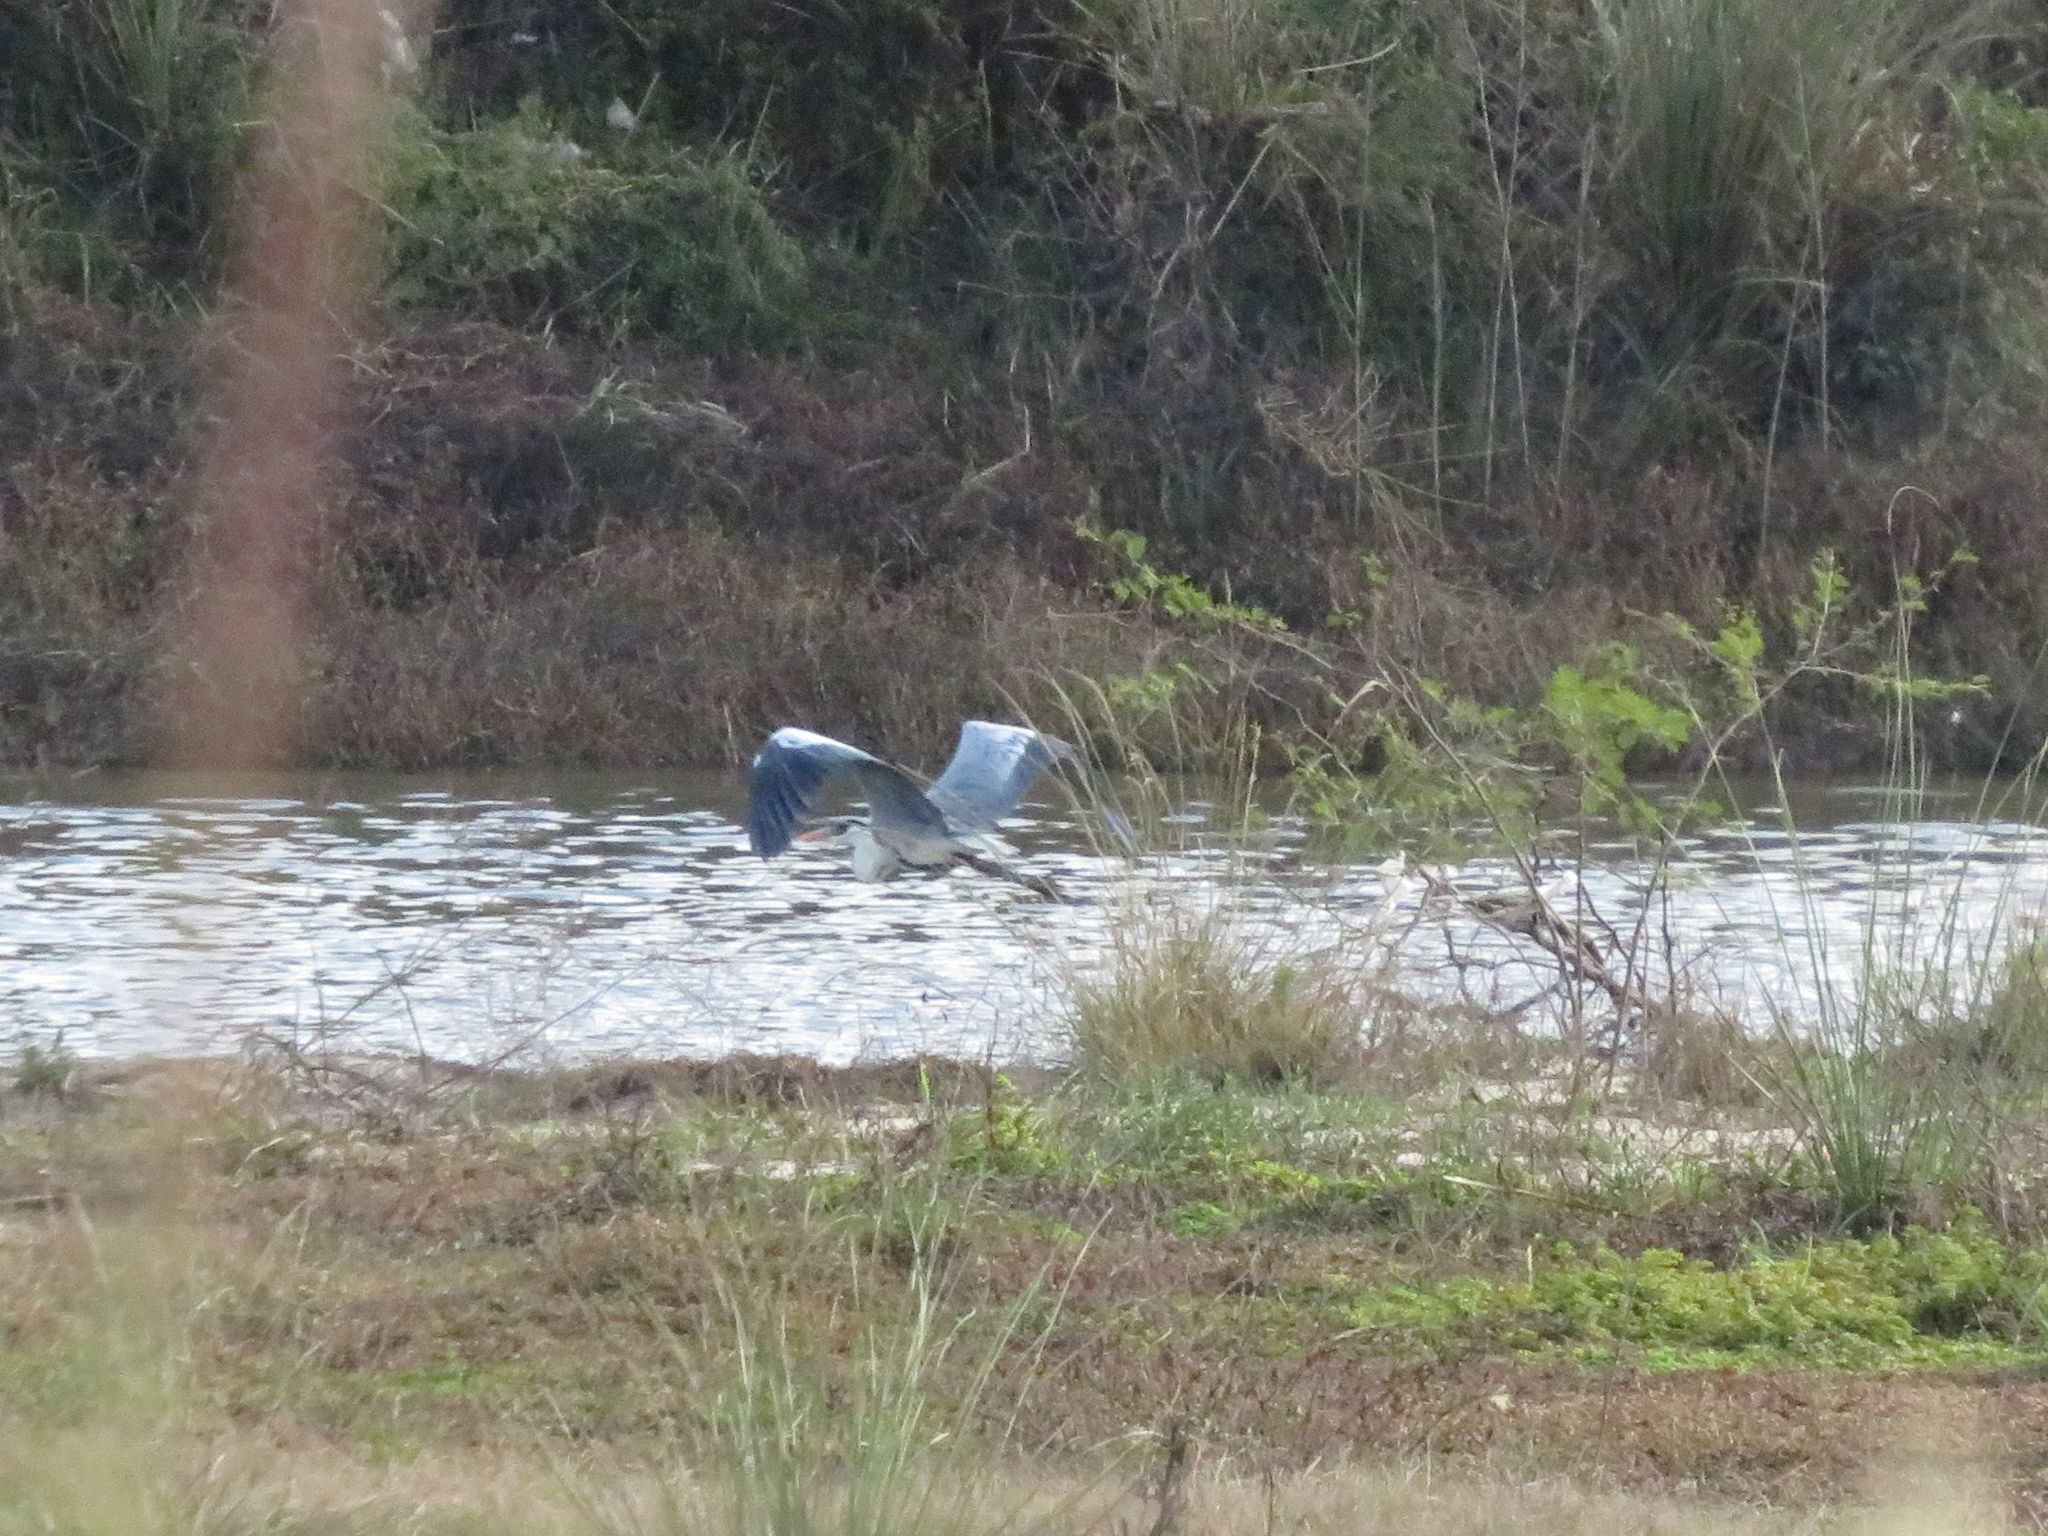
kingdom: Animalia
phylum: Chordata
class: Aves
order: Pelecaniformes
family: Ardeidae
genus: Ardea
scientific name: Ardea cocoi
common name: Cocoi heron
